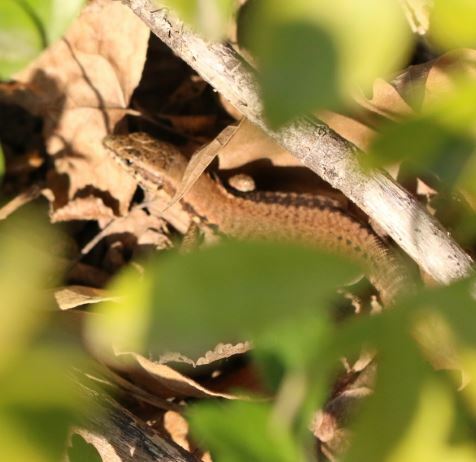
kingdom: Animalia
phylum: Chordata
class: Squamata
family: Lacertidae
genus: Podarcis
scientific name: Podarcis muralis
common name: Common wall lizard
